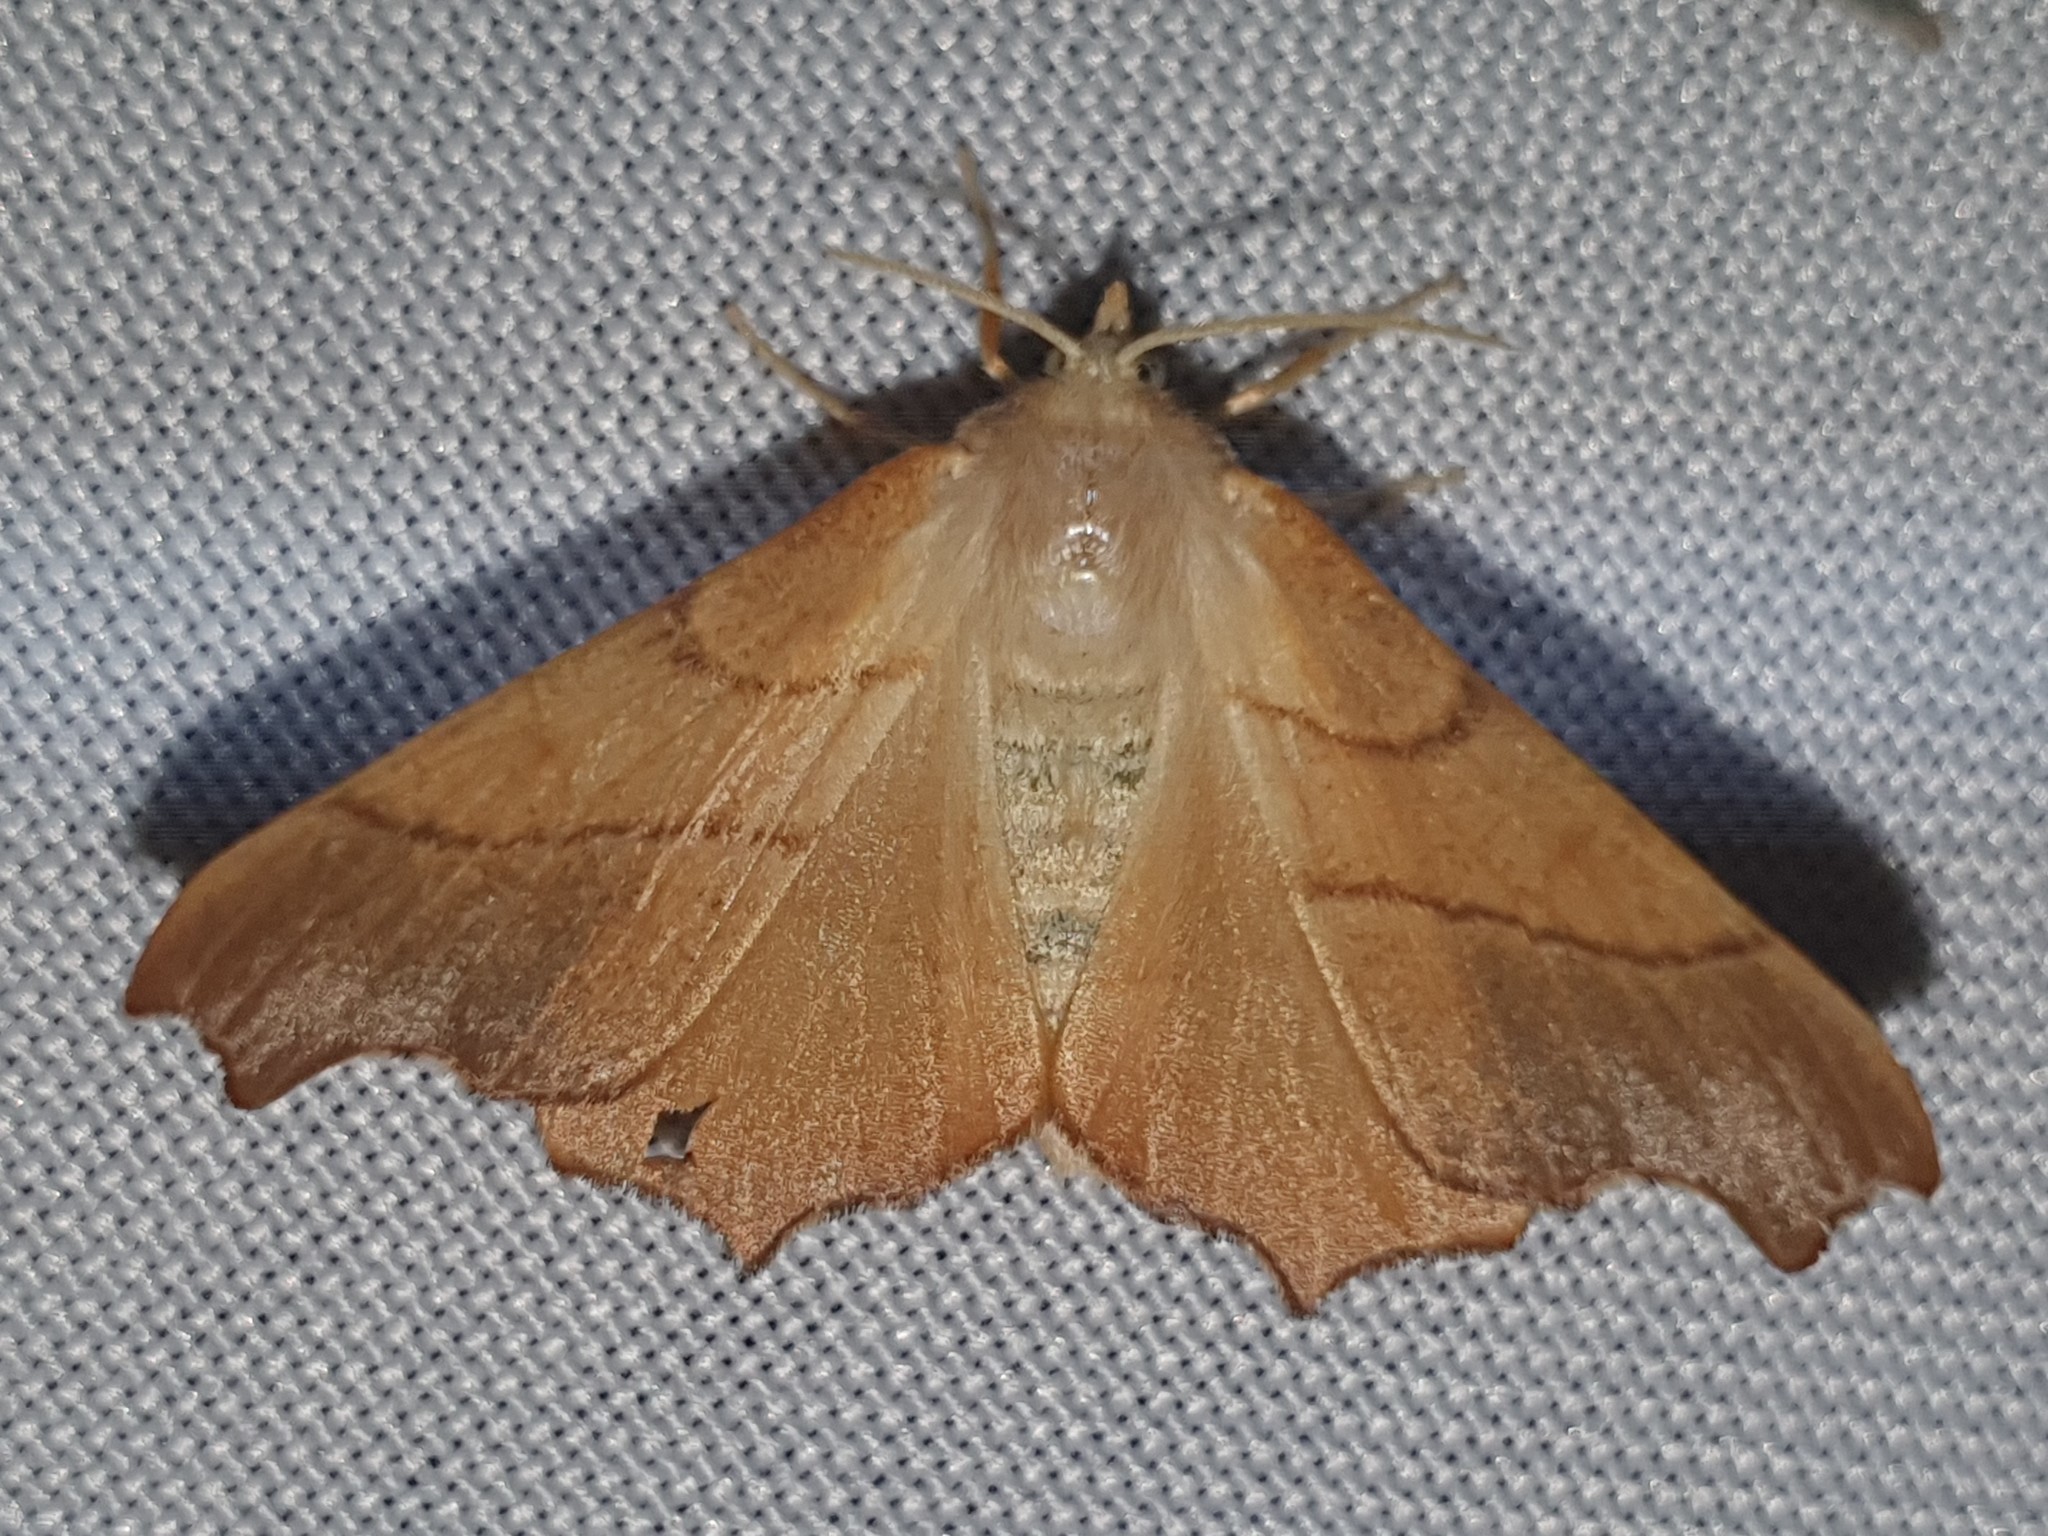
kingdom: Animalia
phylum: Arthropoda
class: Insecta
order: Lepidoptera
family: Geometridae
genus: Ennomos
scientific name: Ennomos fuscantaria
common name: Dusky thorn
